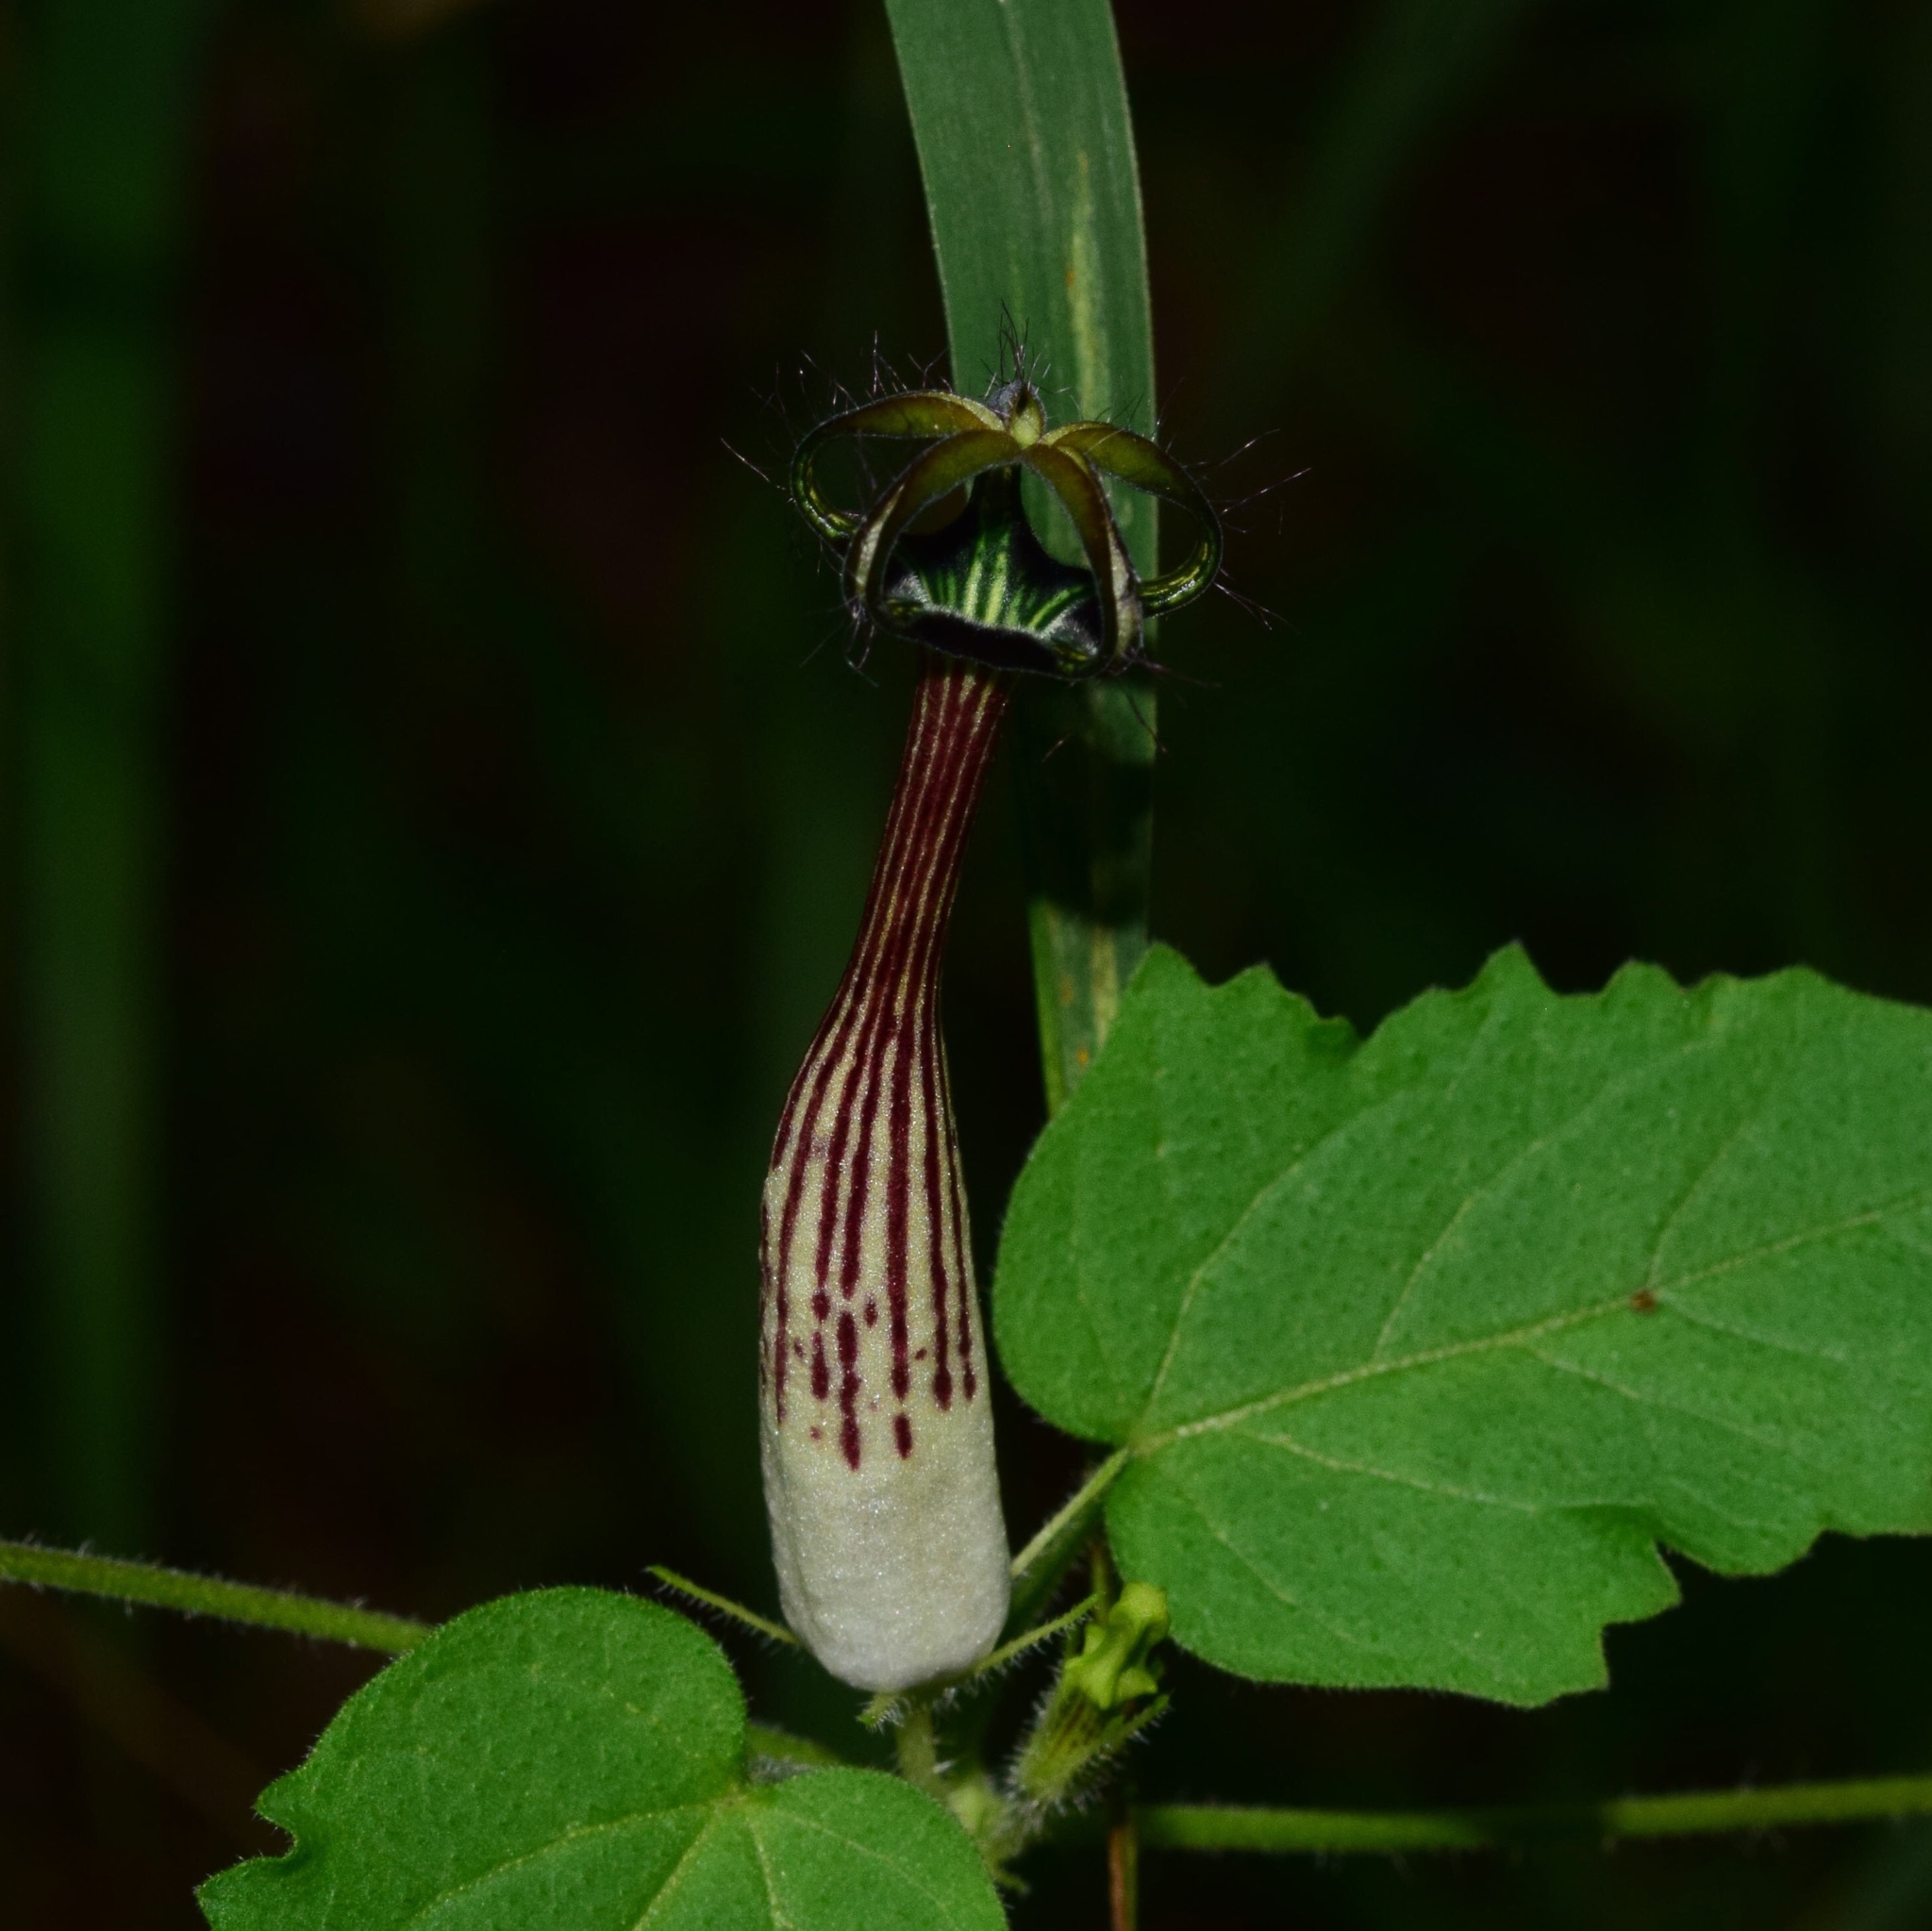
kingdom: Plantae
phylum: Tracheophyta
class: Magnoliopsida
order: Gentianales
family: Apocynaceae
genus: Ceropegia
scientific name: Ceropegia meyeri
